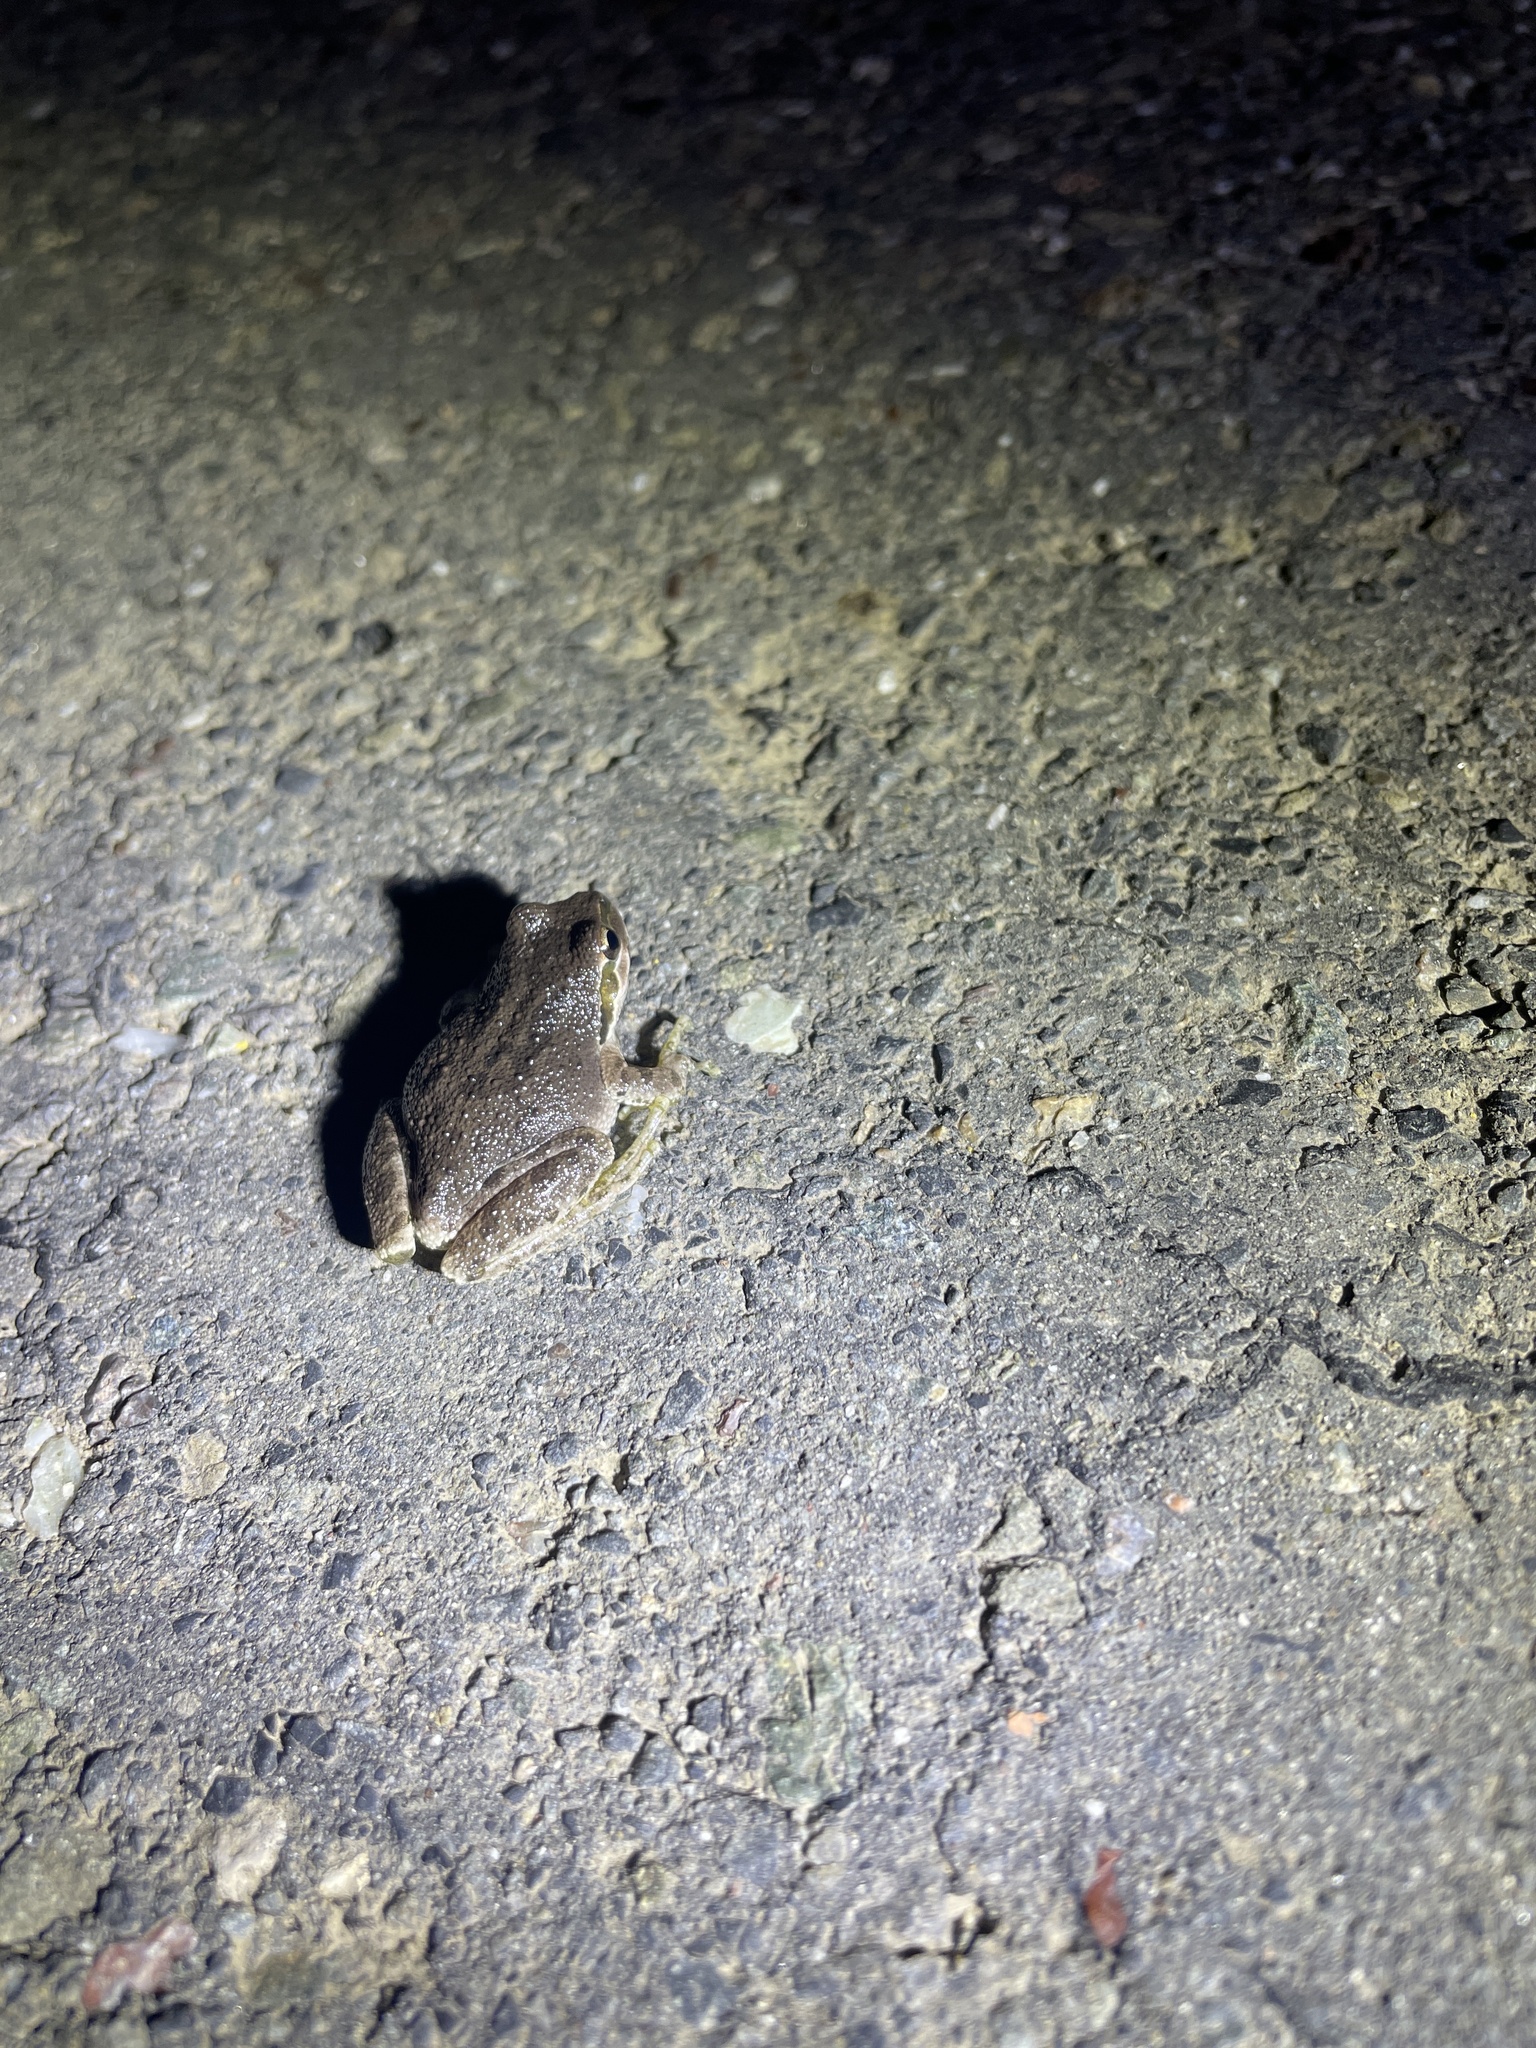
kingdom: Animalia
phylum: Chordata
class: Amphibia
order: Anura
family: Hylidae
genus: Pseudacris
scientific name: Pseudacris regilla
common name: Pacific chorus frog
